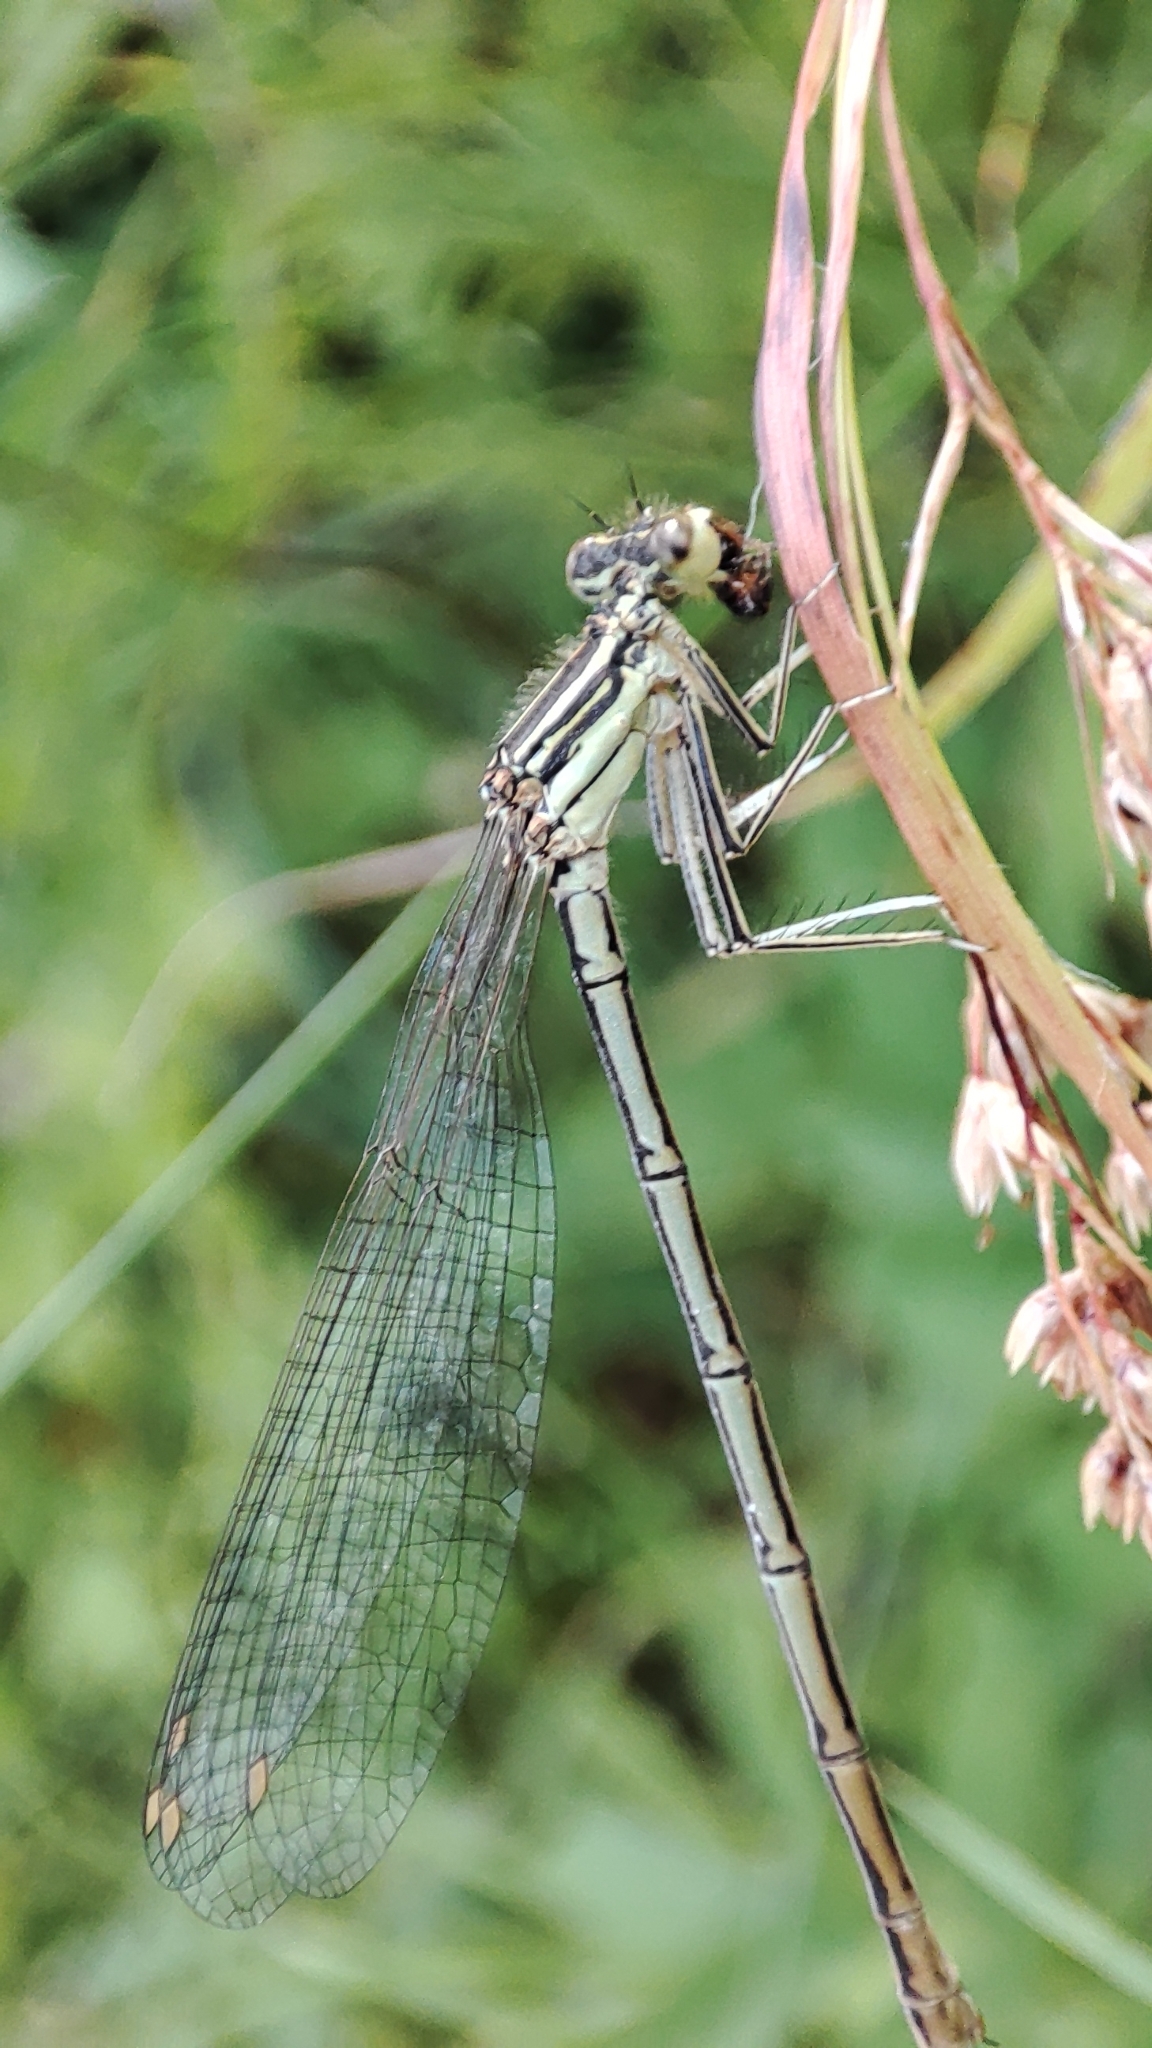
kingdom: Animalia
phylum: Arthropoda
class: Insecta
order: Odonata
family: Platycnemididae
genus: Platycnemis
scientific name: Platycnemis pennipes
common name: White-legged damselfly
